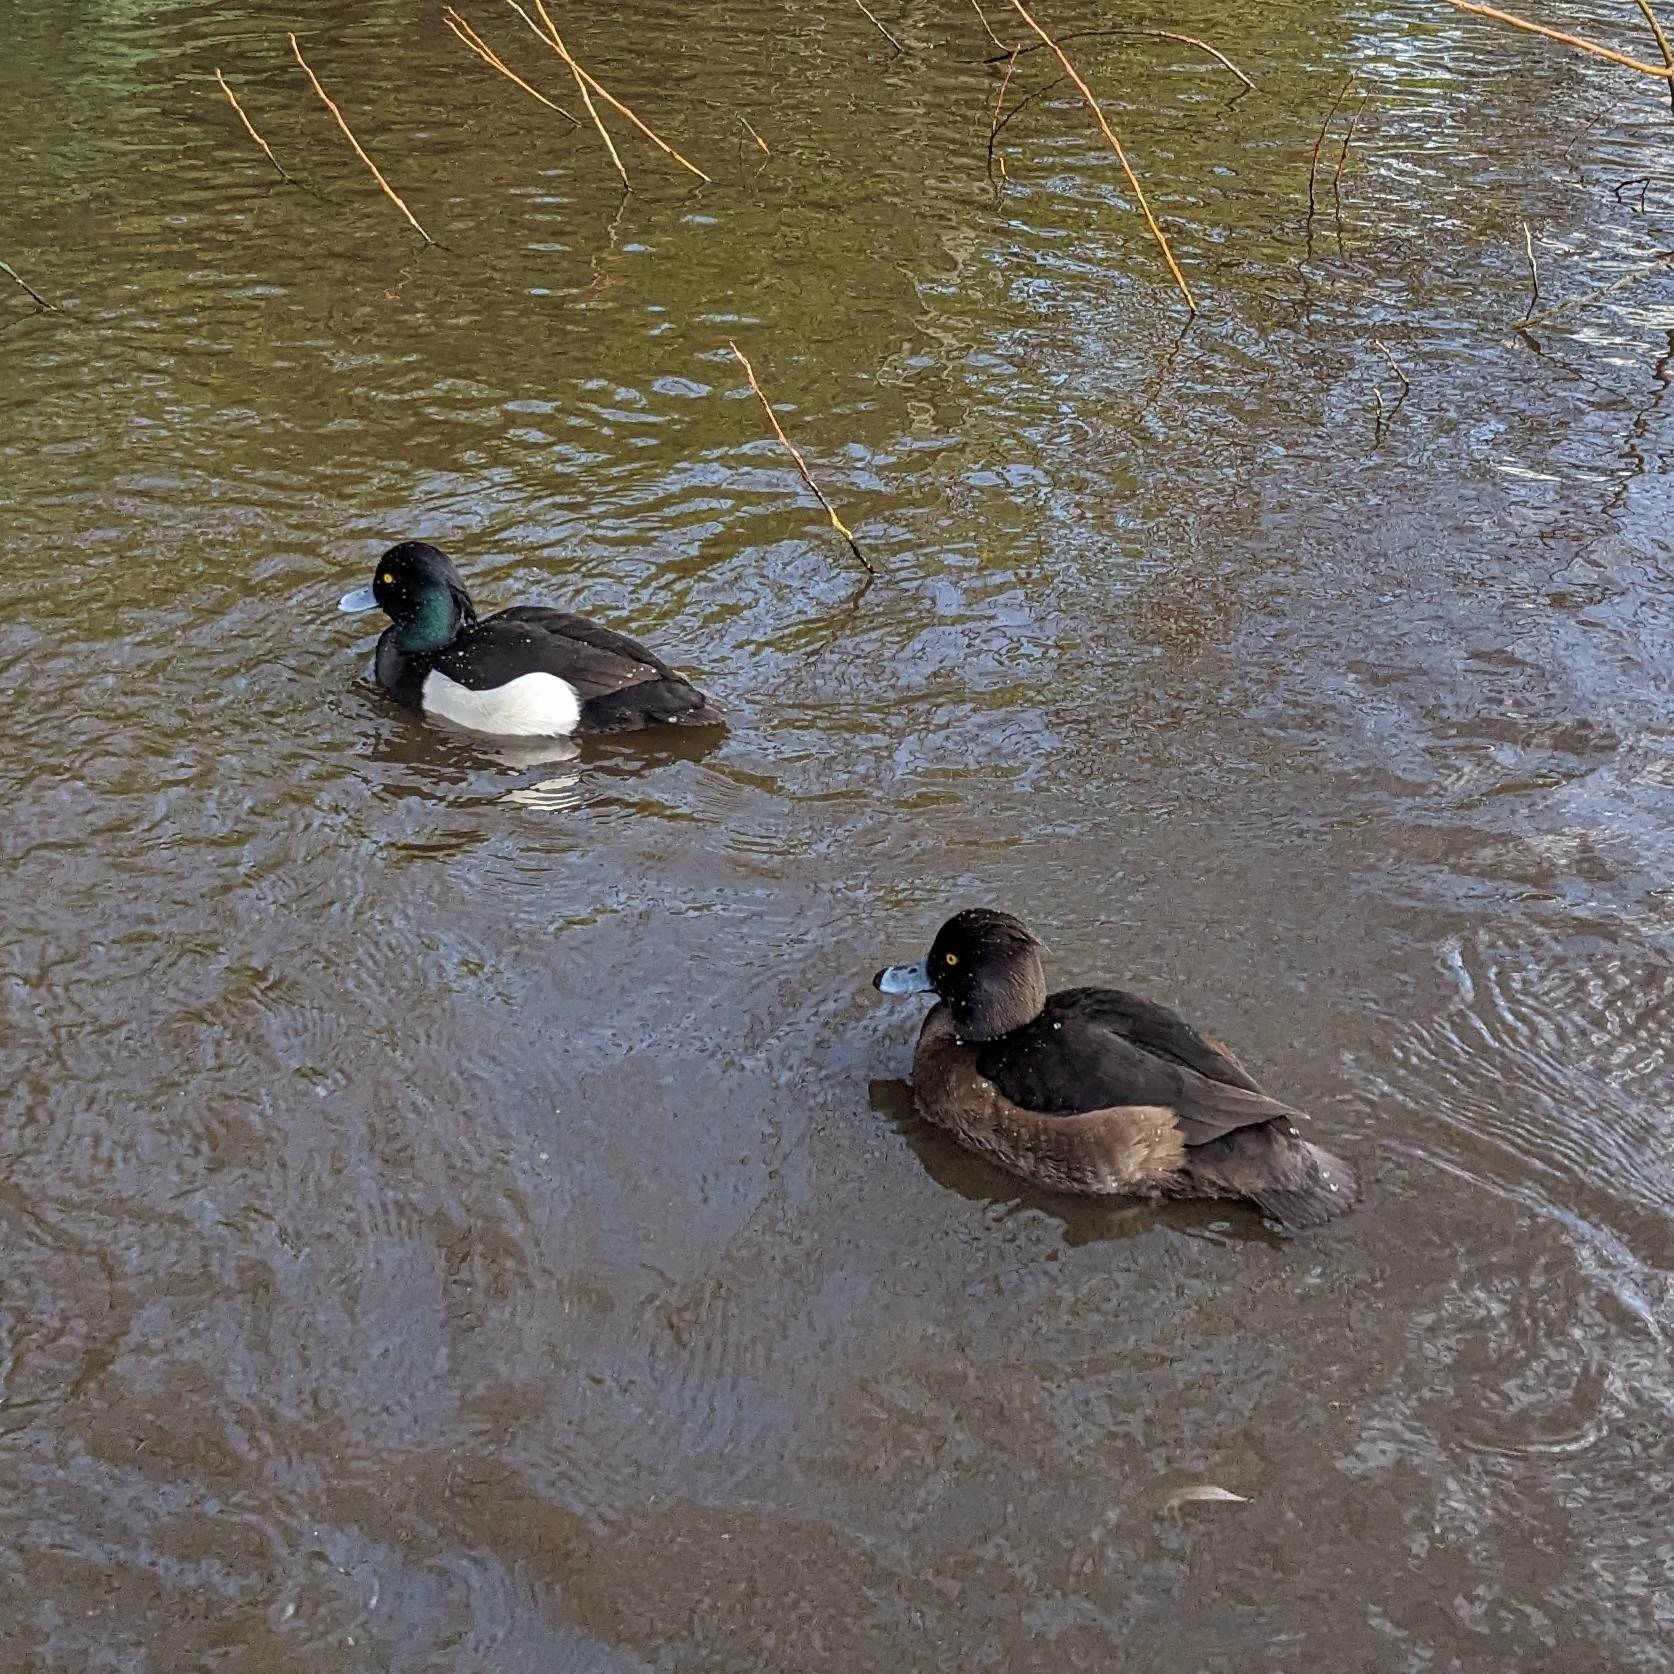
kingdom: Animalia
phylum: Chordata
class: Aves
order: Anseriformes
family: Anatidae
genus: Aythya
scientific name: Aythya fuligula
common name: Tufted duck
